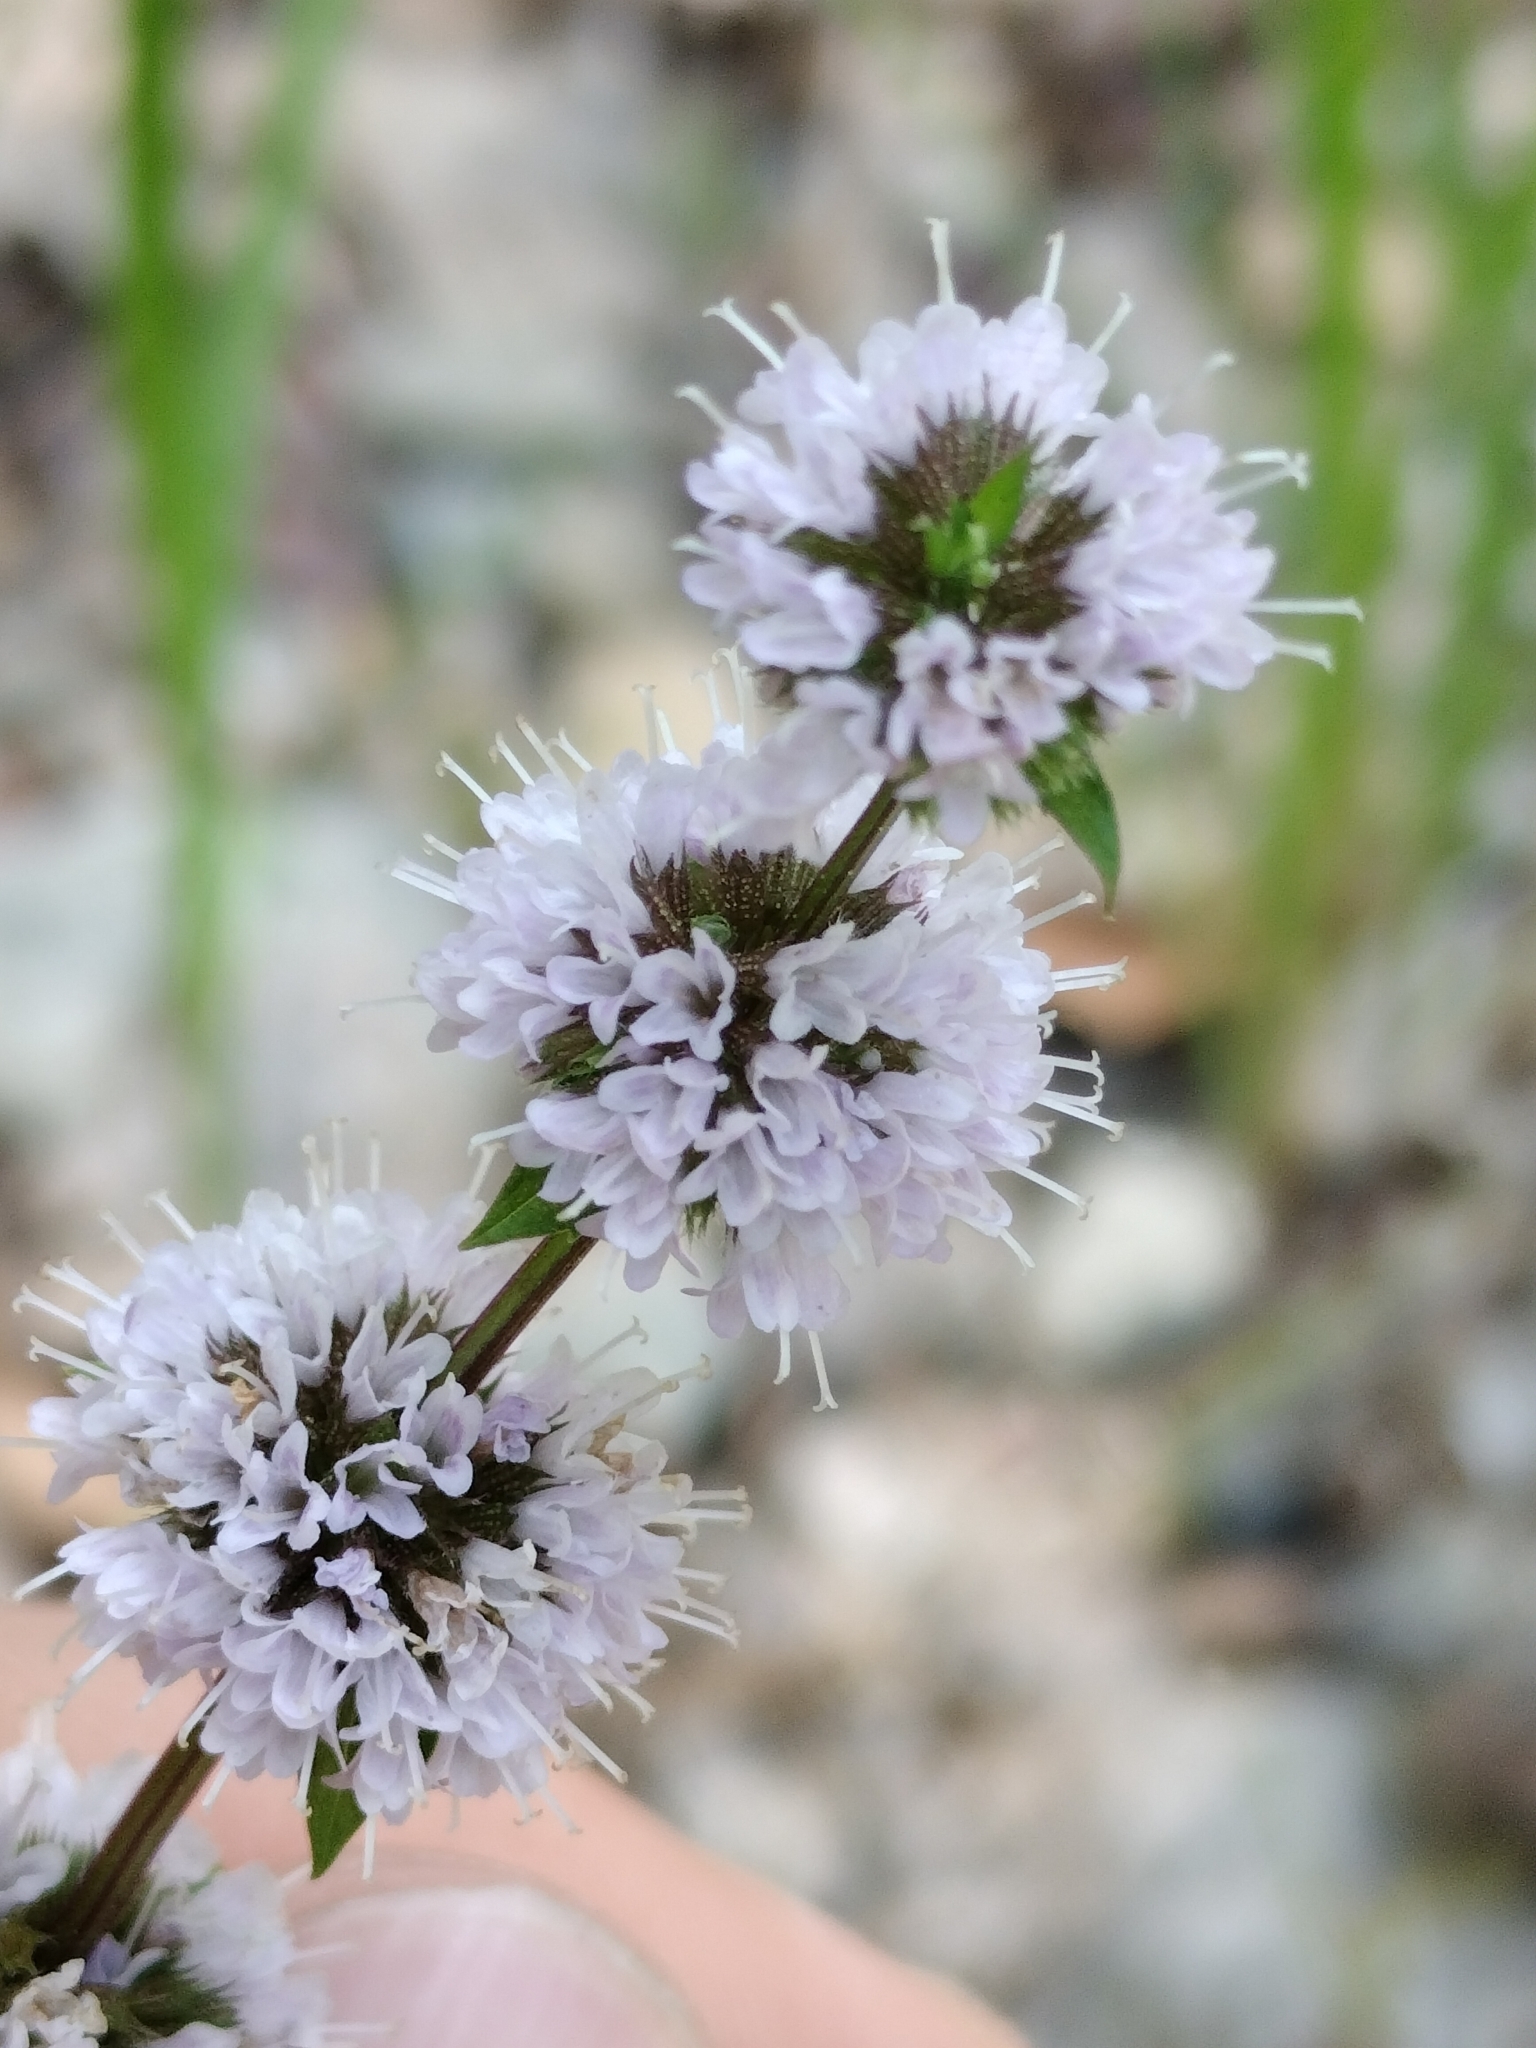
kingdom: Plantae
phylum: Tracheophyta
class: Magnoliopsida
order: Lamiales
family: Lamiaceae
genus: Mentha
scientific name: Mentha canadensis
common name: American corn mint
